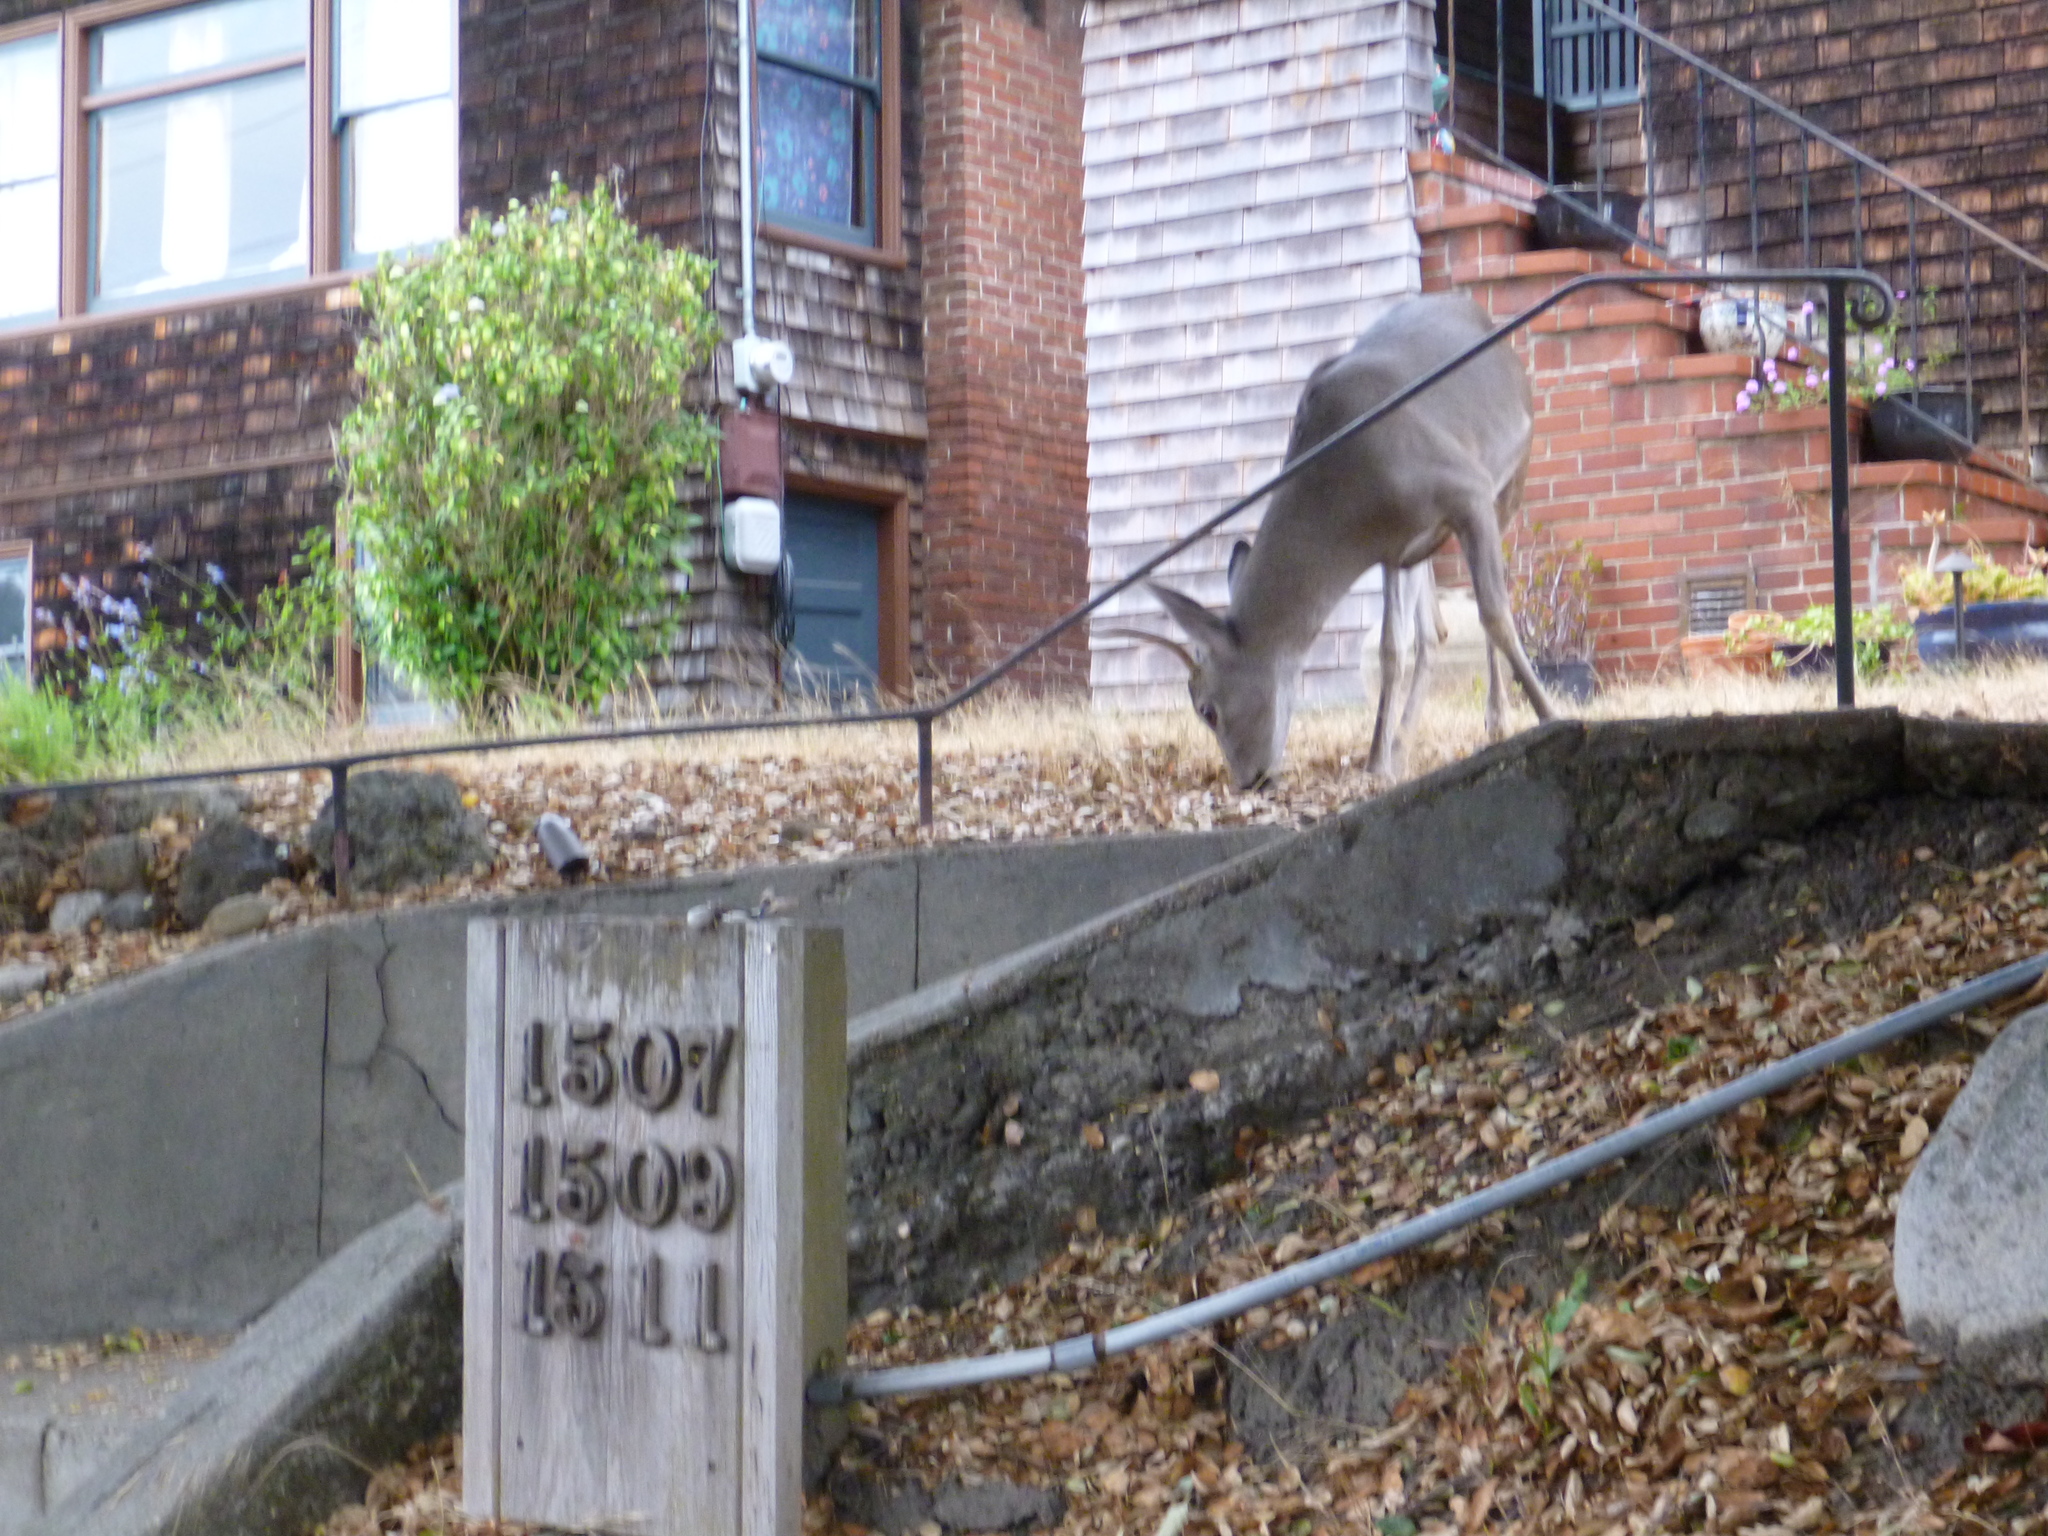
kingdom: Animalia
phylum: Chordata
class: Mammalia
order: Artiodactyla
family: Cervidae
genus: Odocoileus
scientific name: Odocoileus hemionus
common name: Mule deer
